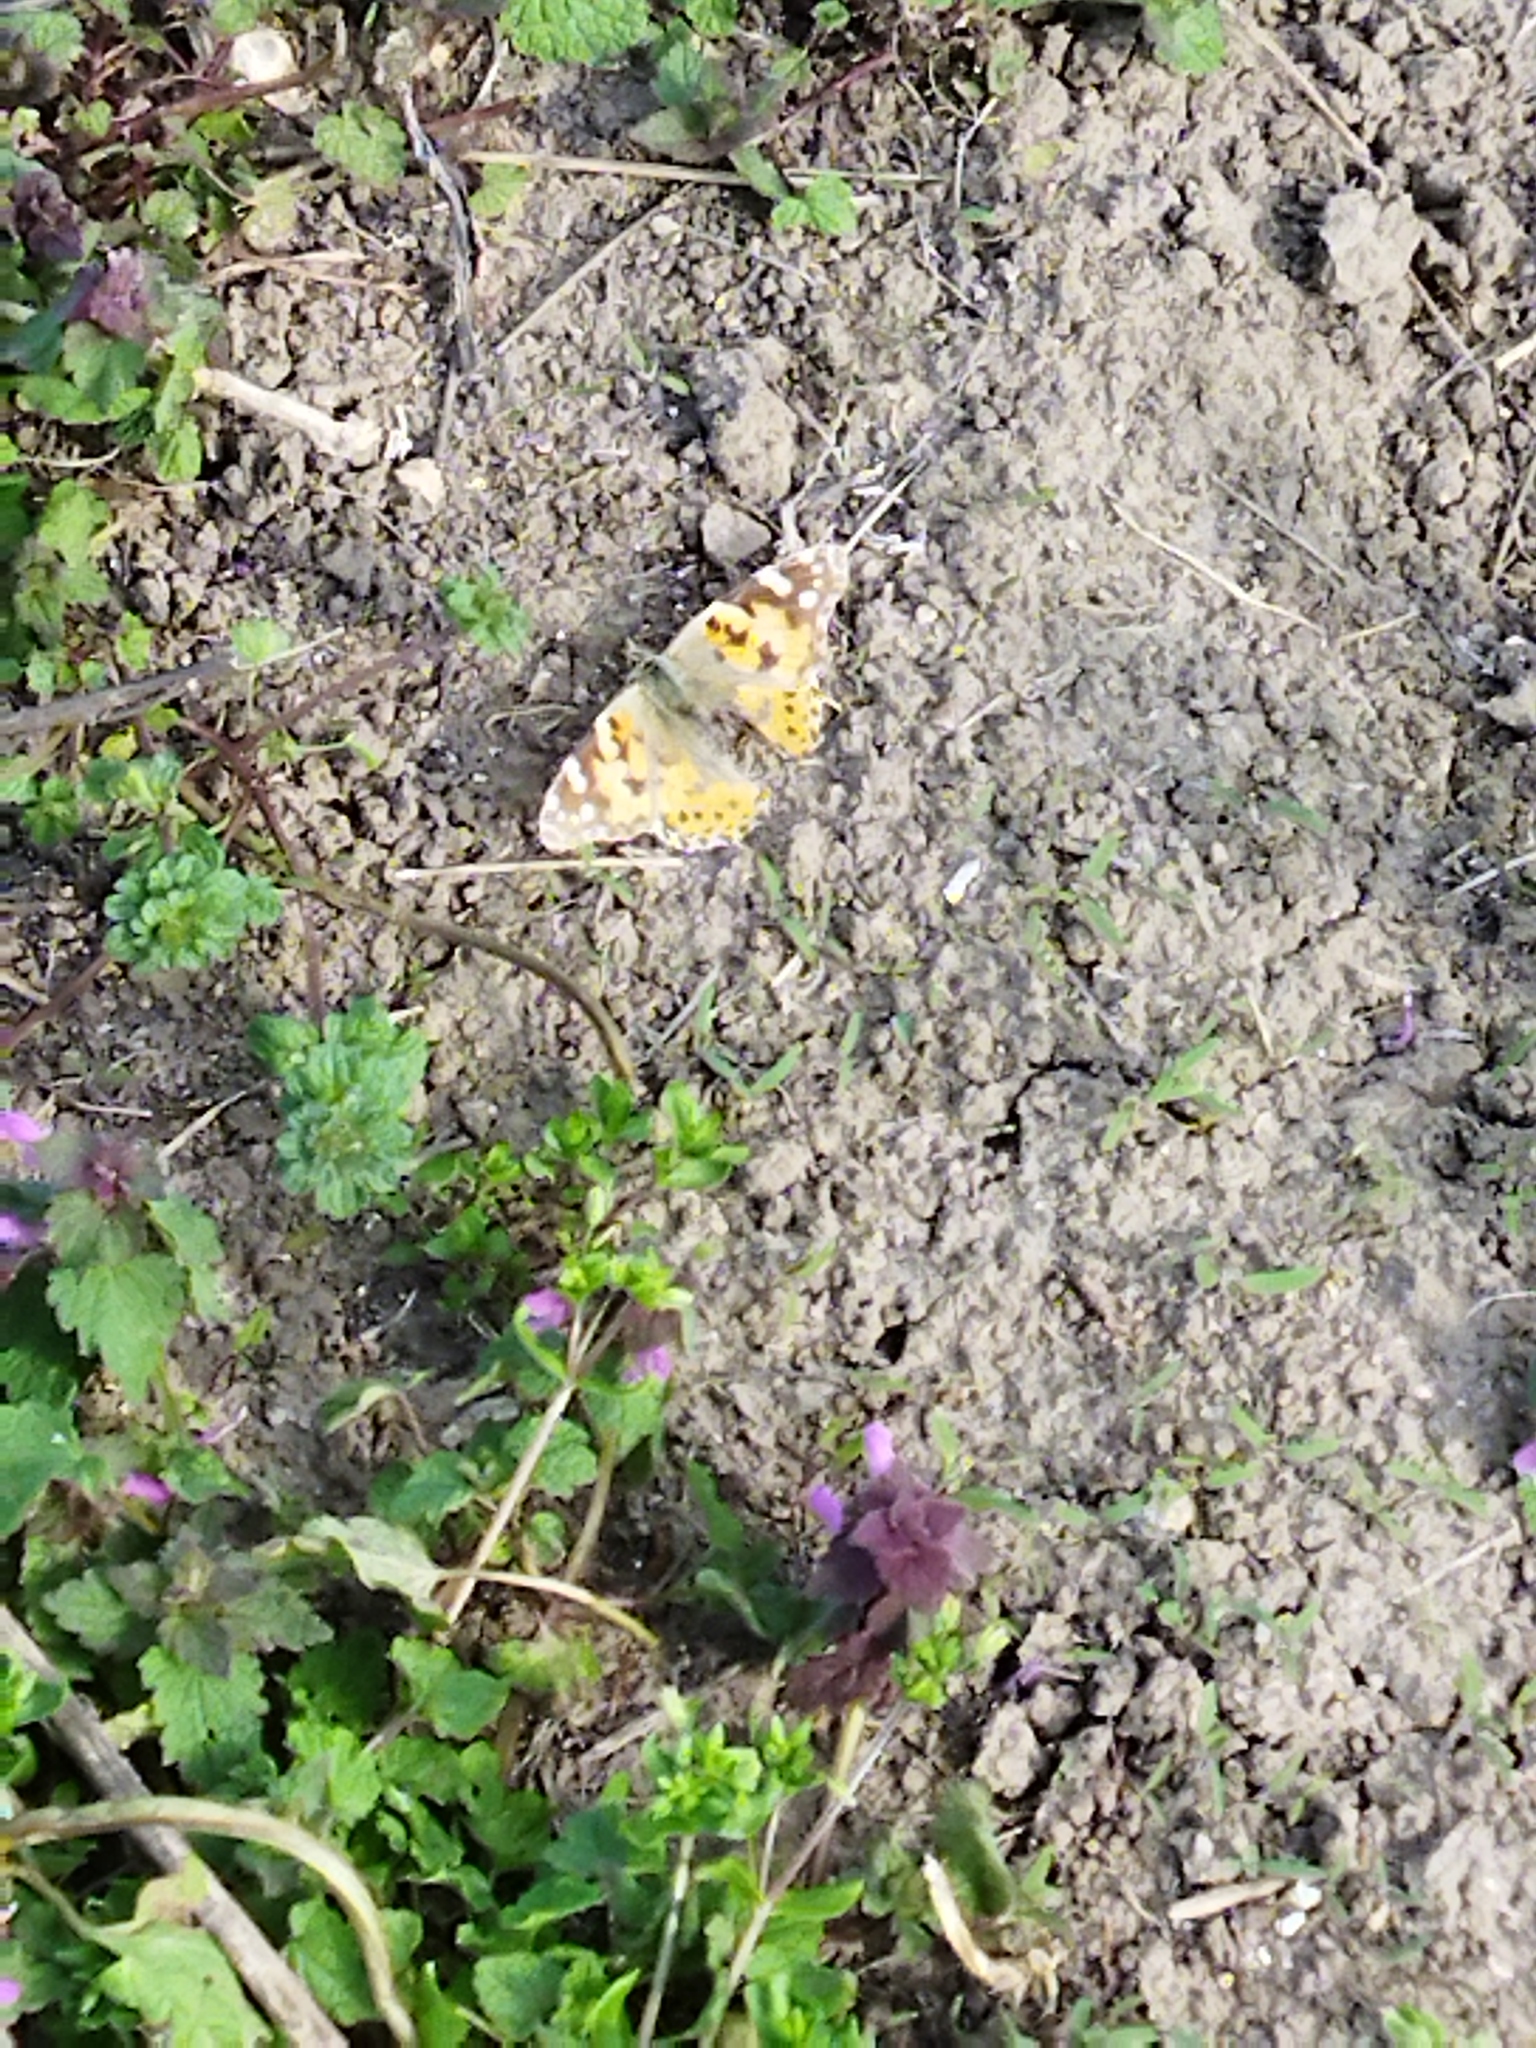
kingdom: Animalia
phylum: Arthropoda
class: Insecta
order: Lepidoptera
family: Nymphalidae
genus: Vanessa
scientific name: Vanessa cardui
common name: Painted lady
